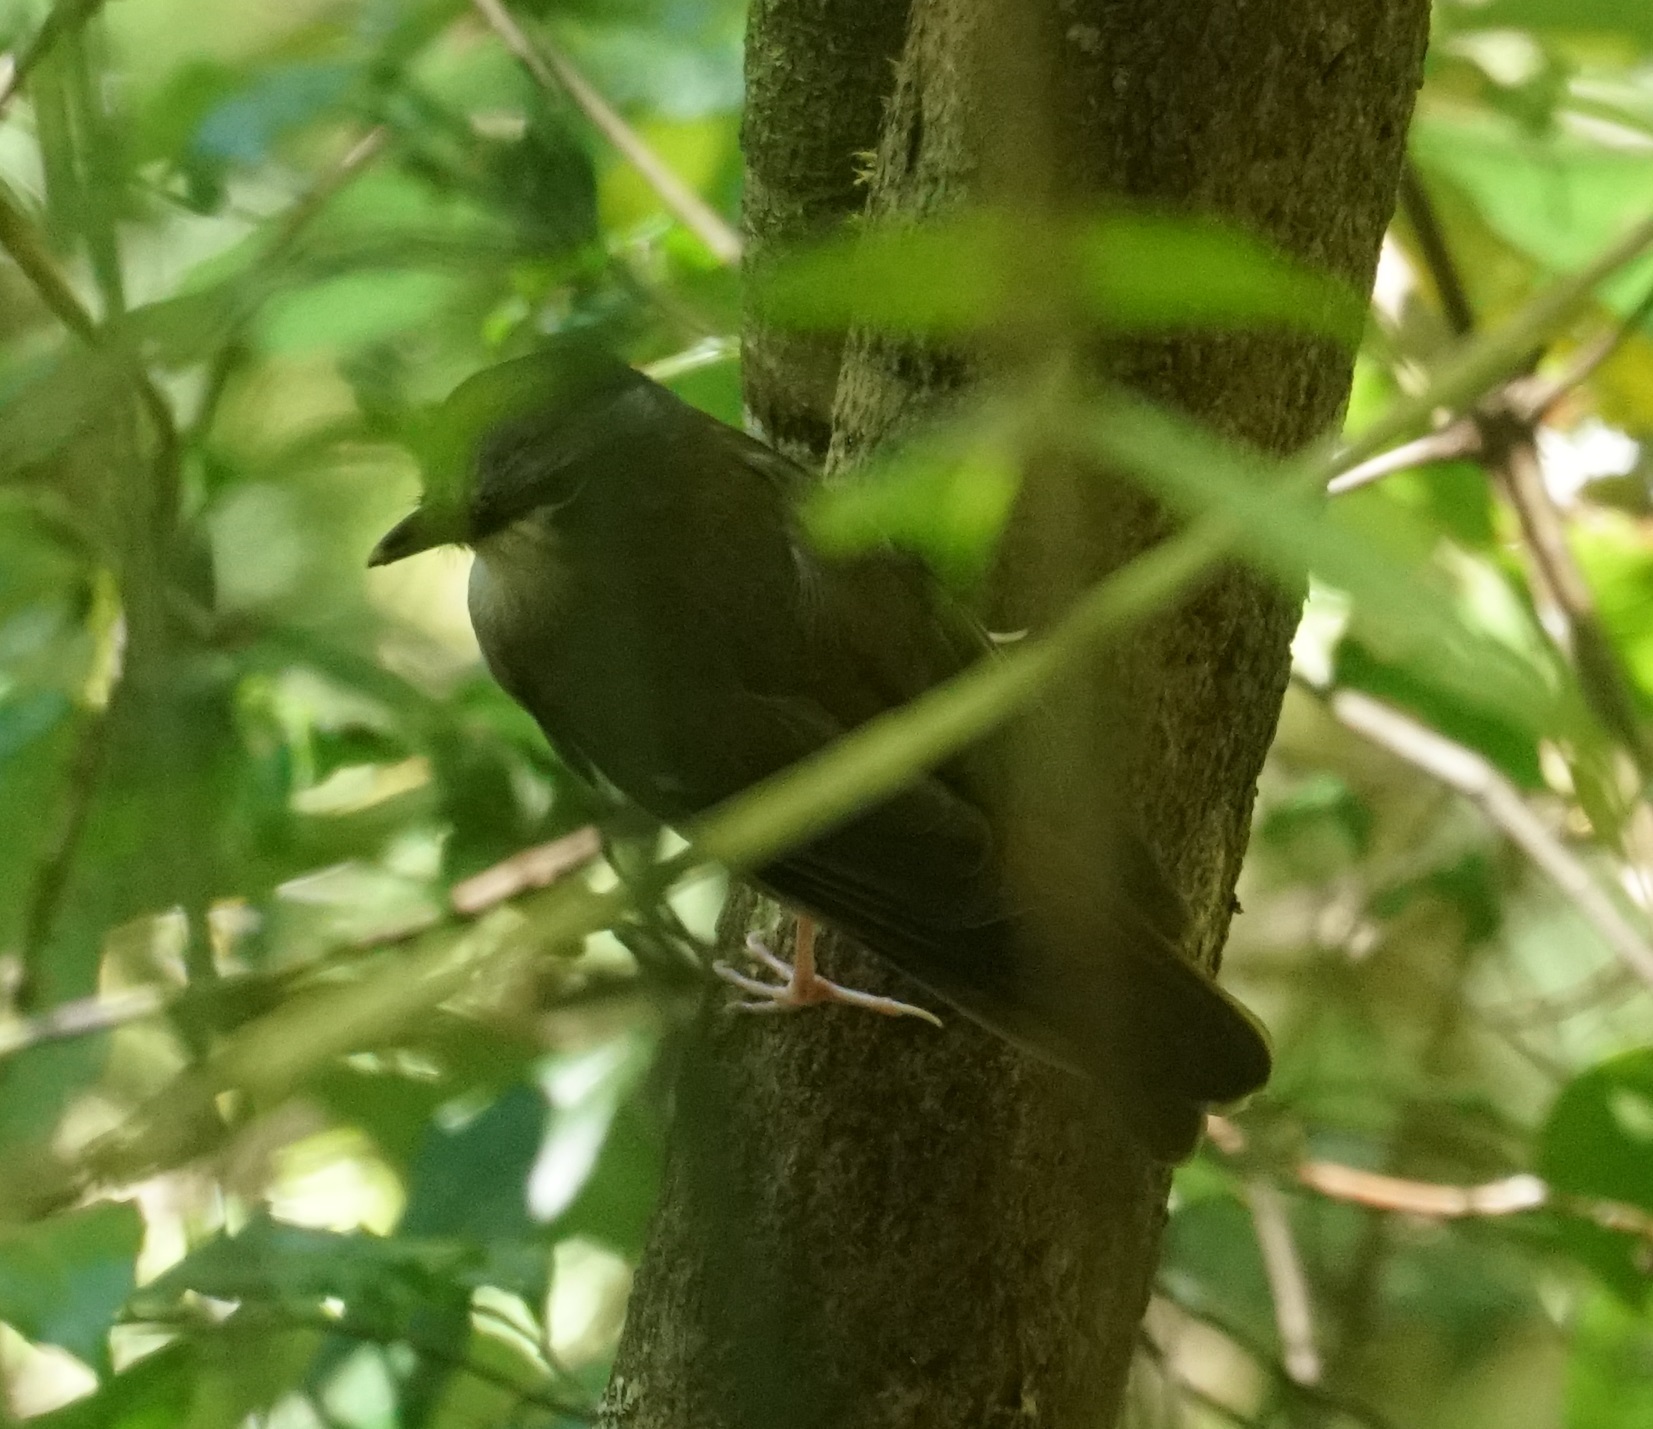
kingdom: Animalia
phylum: Chordata
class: Aves
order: Passeriformes
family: Petroicidae
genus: Heteromyias
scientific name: Heteromyias cinereifrons
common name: Grey-headed robin
